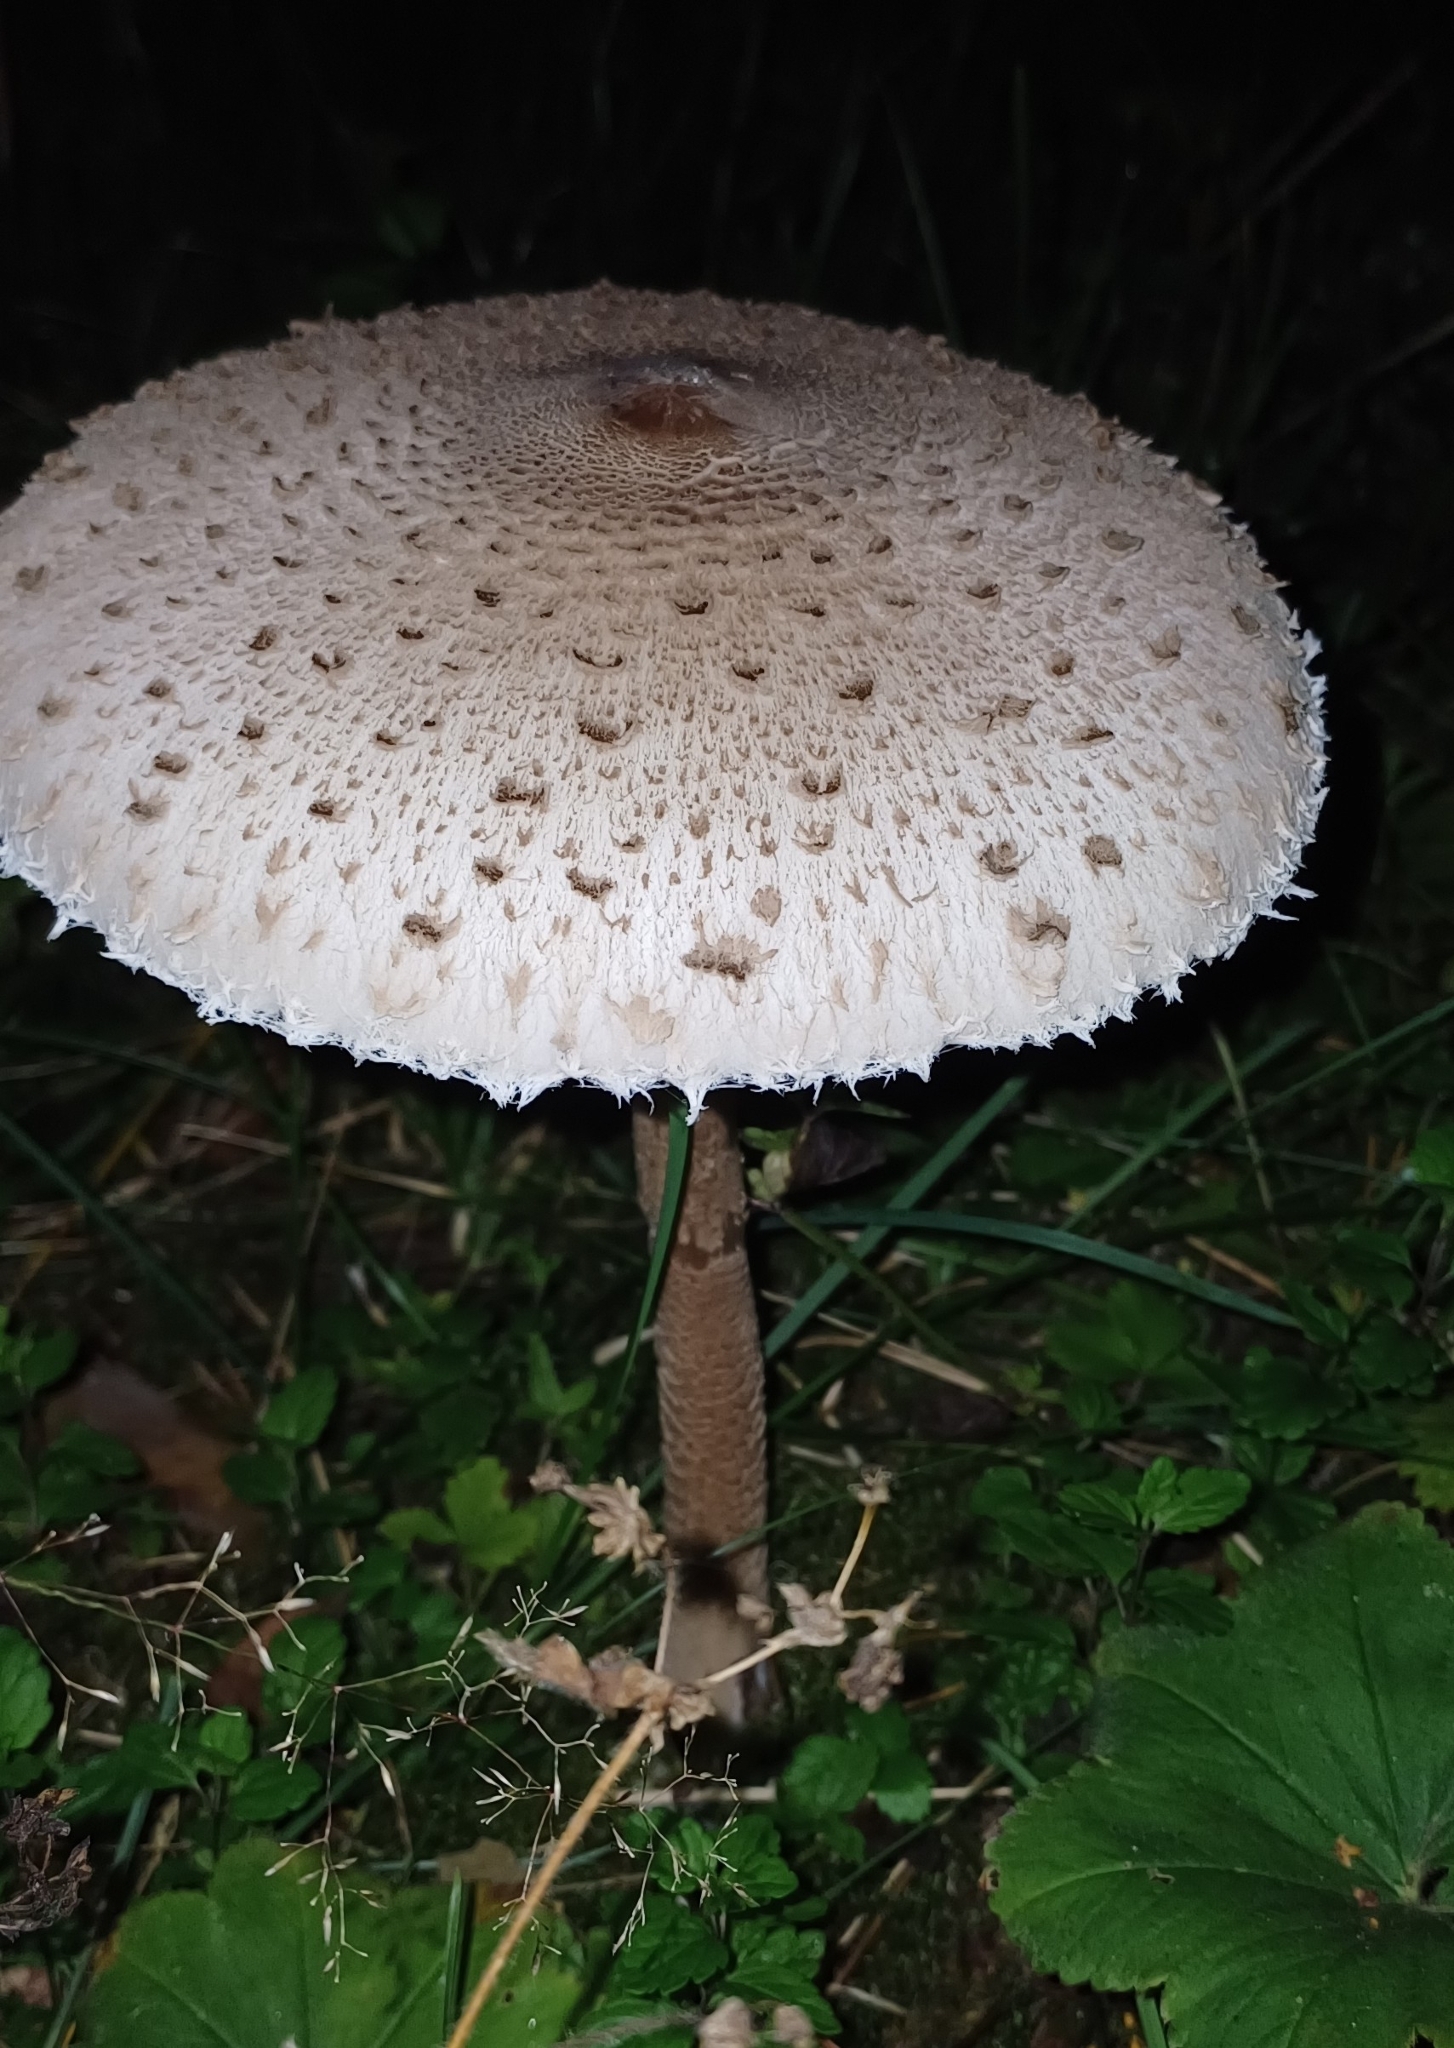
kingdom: Fungi
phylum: Basidiomycota
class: Agaricomycetes
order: Agaricales
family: Agaricaceae
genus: Macrolepiota
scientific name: Macrolepiota procera
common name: Parasol
